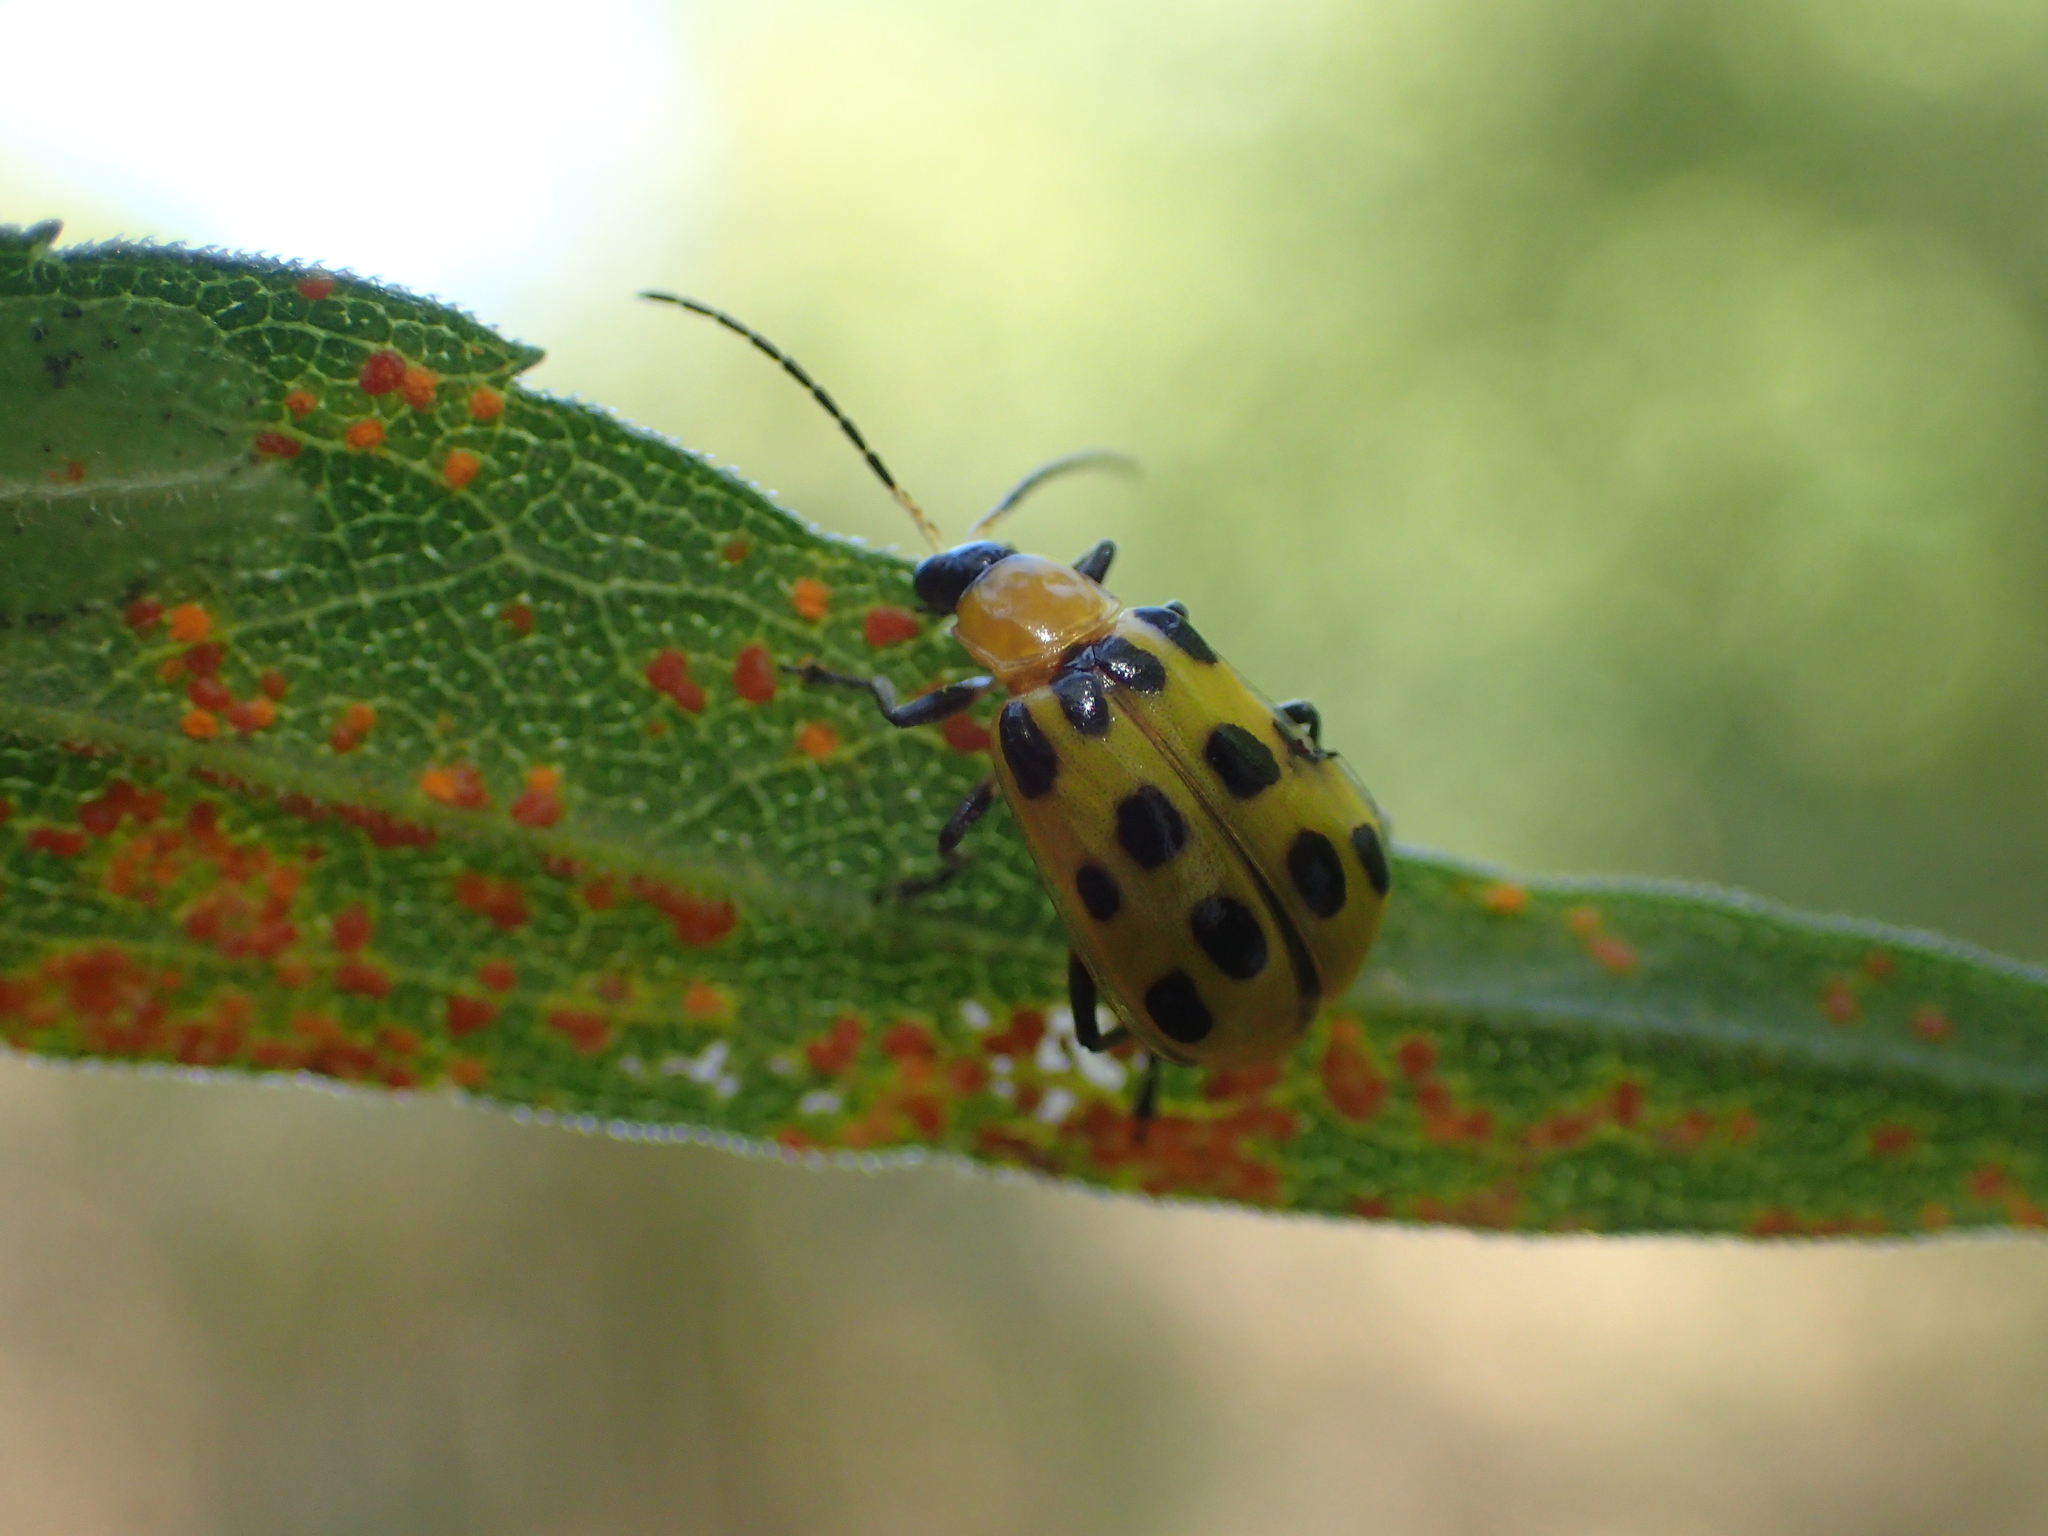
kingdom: Animalia
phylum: Arthropoda
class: Insecta
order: Coleoptera
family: Chrysomelidae
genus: Diabrotica
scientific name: Diabrotica undecimpunctata
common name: Spotted cucumber beetle
